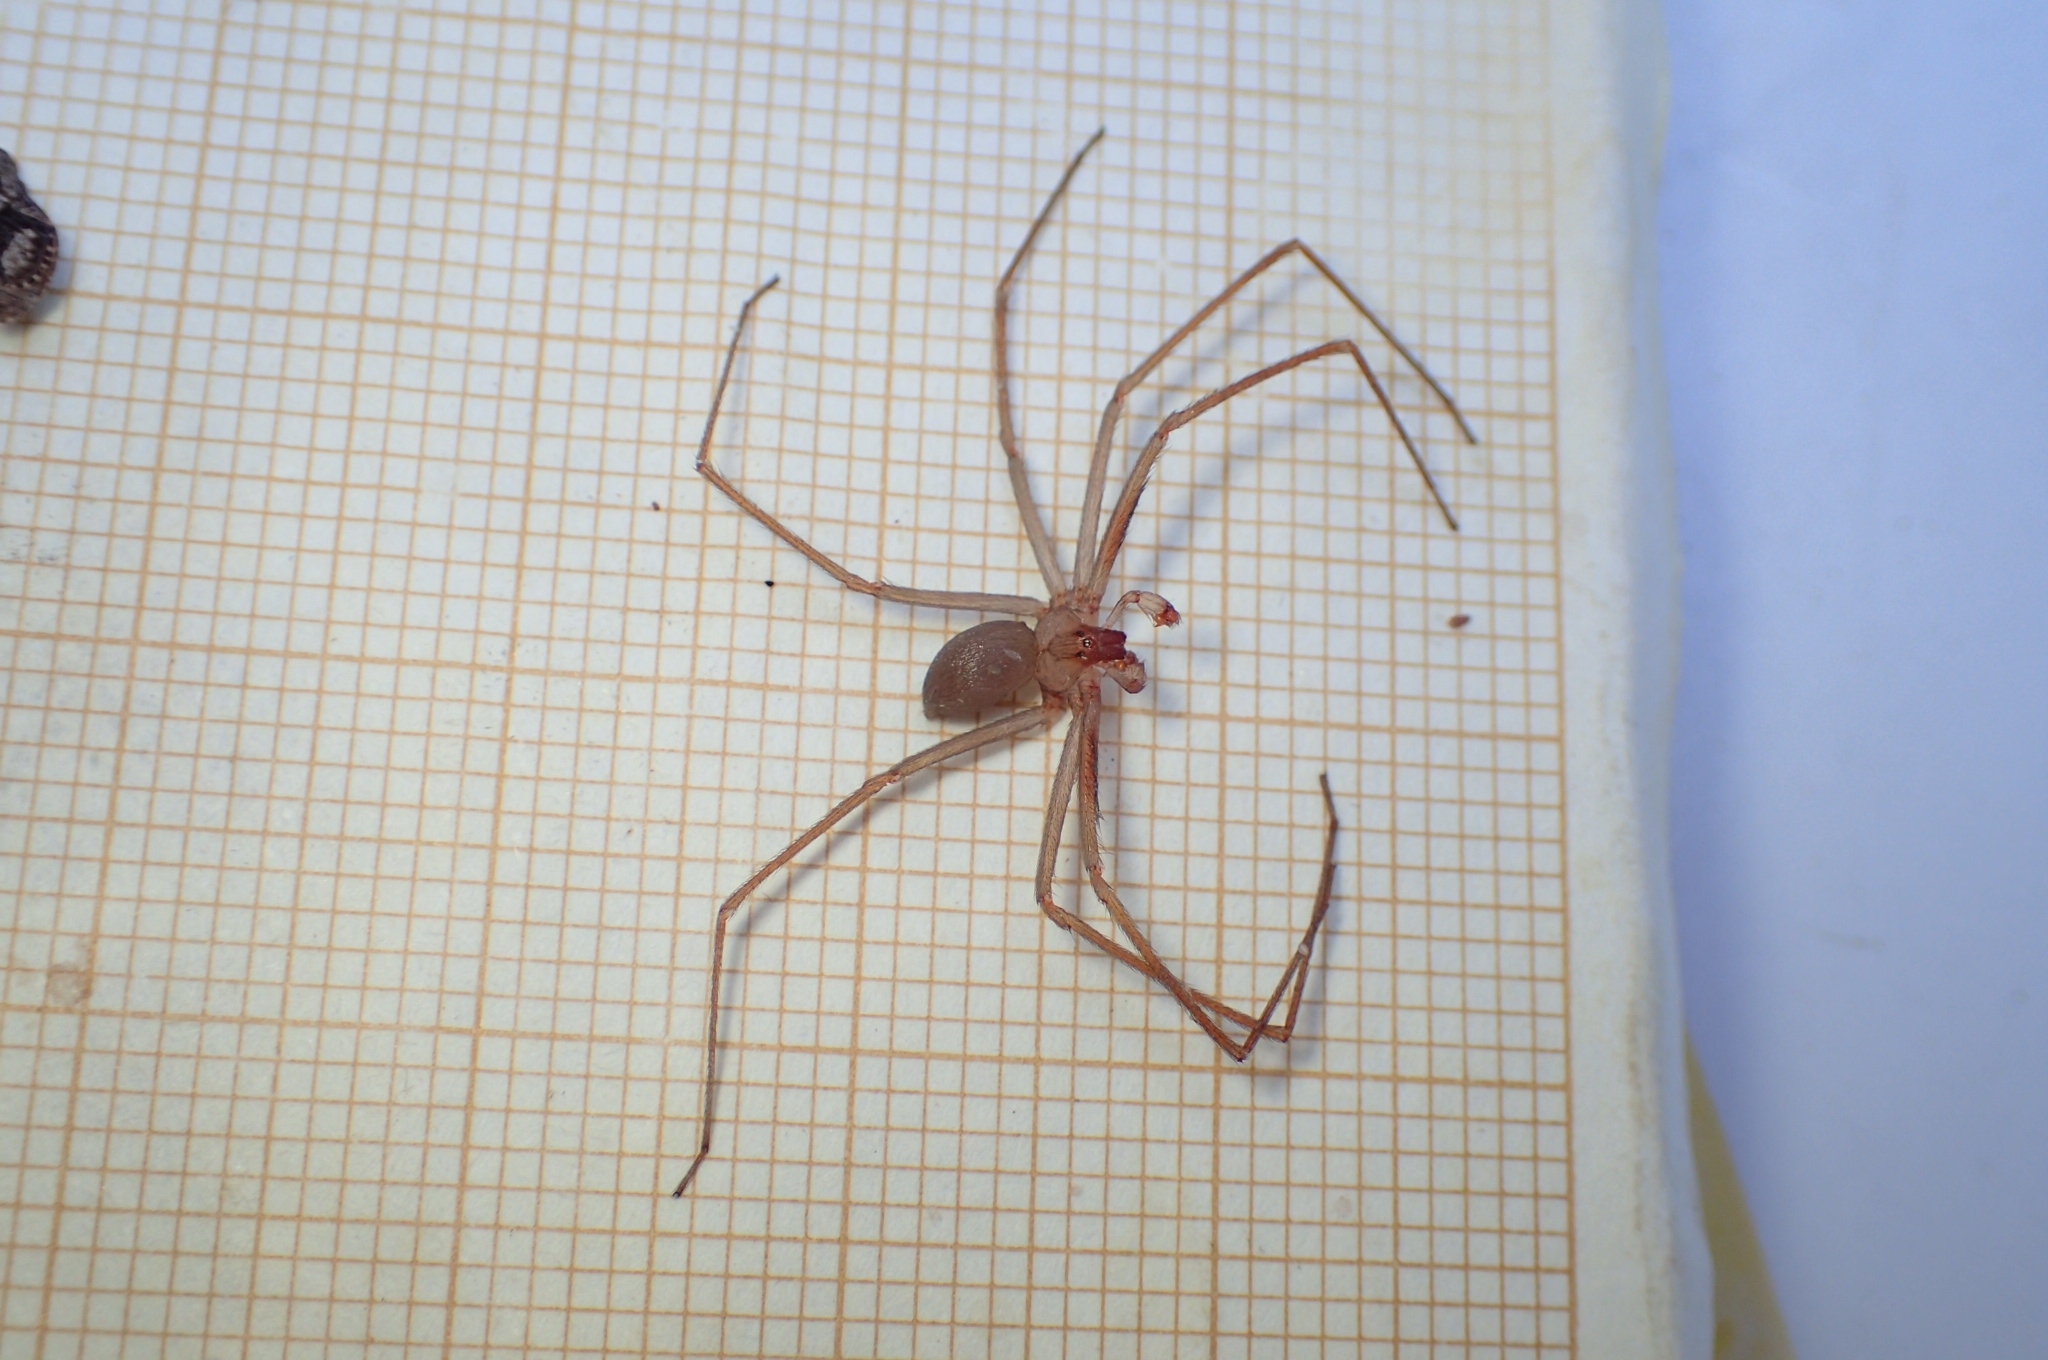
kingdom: Animalia
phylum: Arthropoda
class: Arachnida
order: Araneae
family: Sicariidae
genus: Loxosceles
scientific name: Loxosceles rufescens
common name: Mediterranean recluse spider
